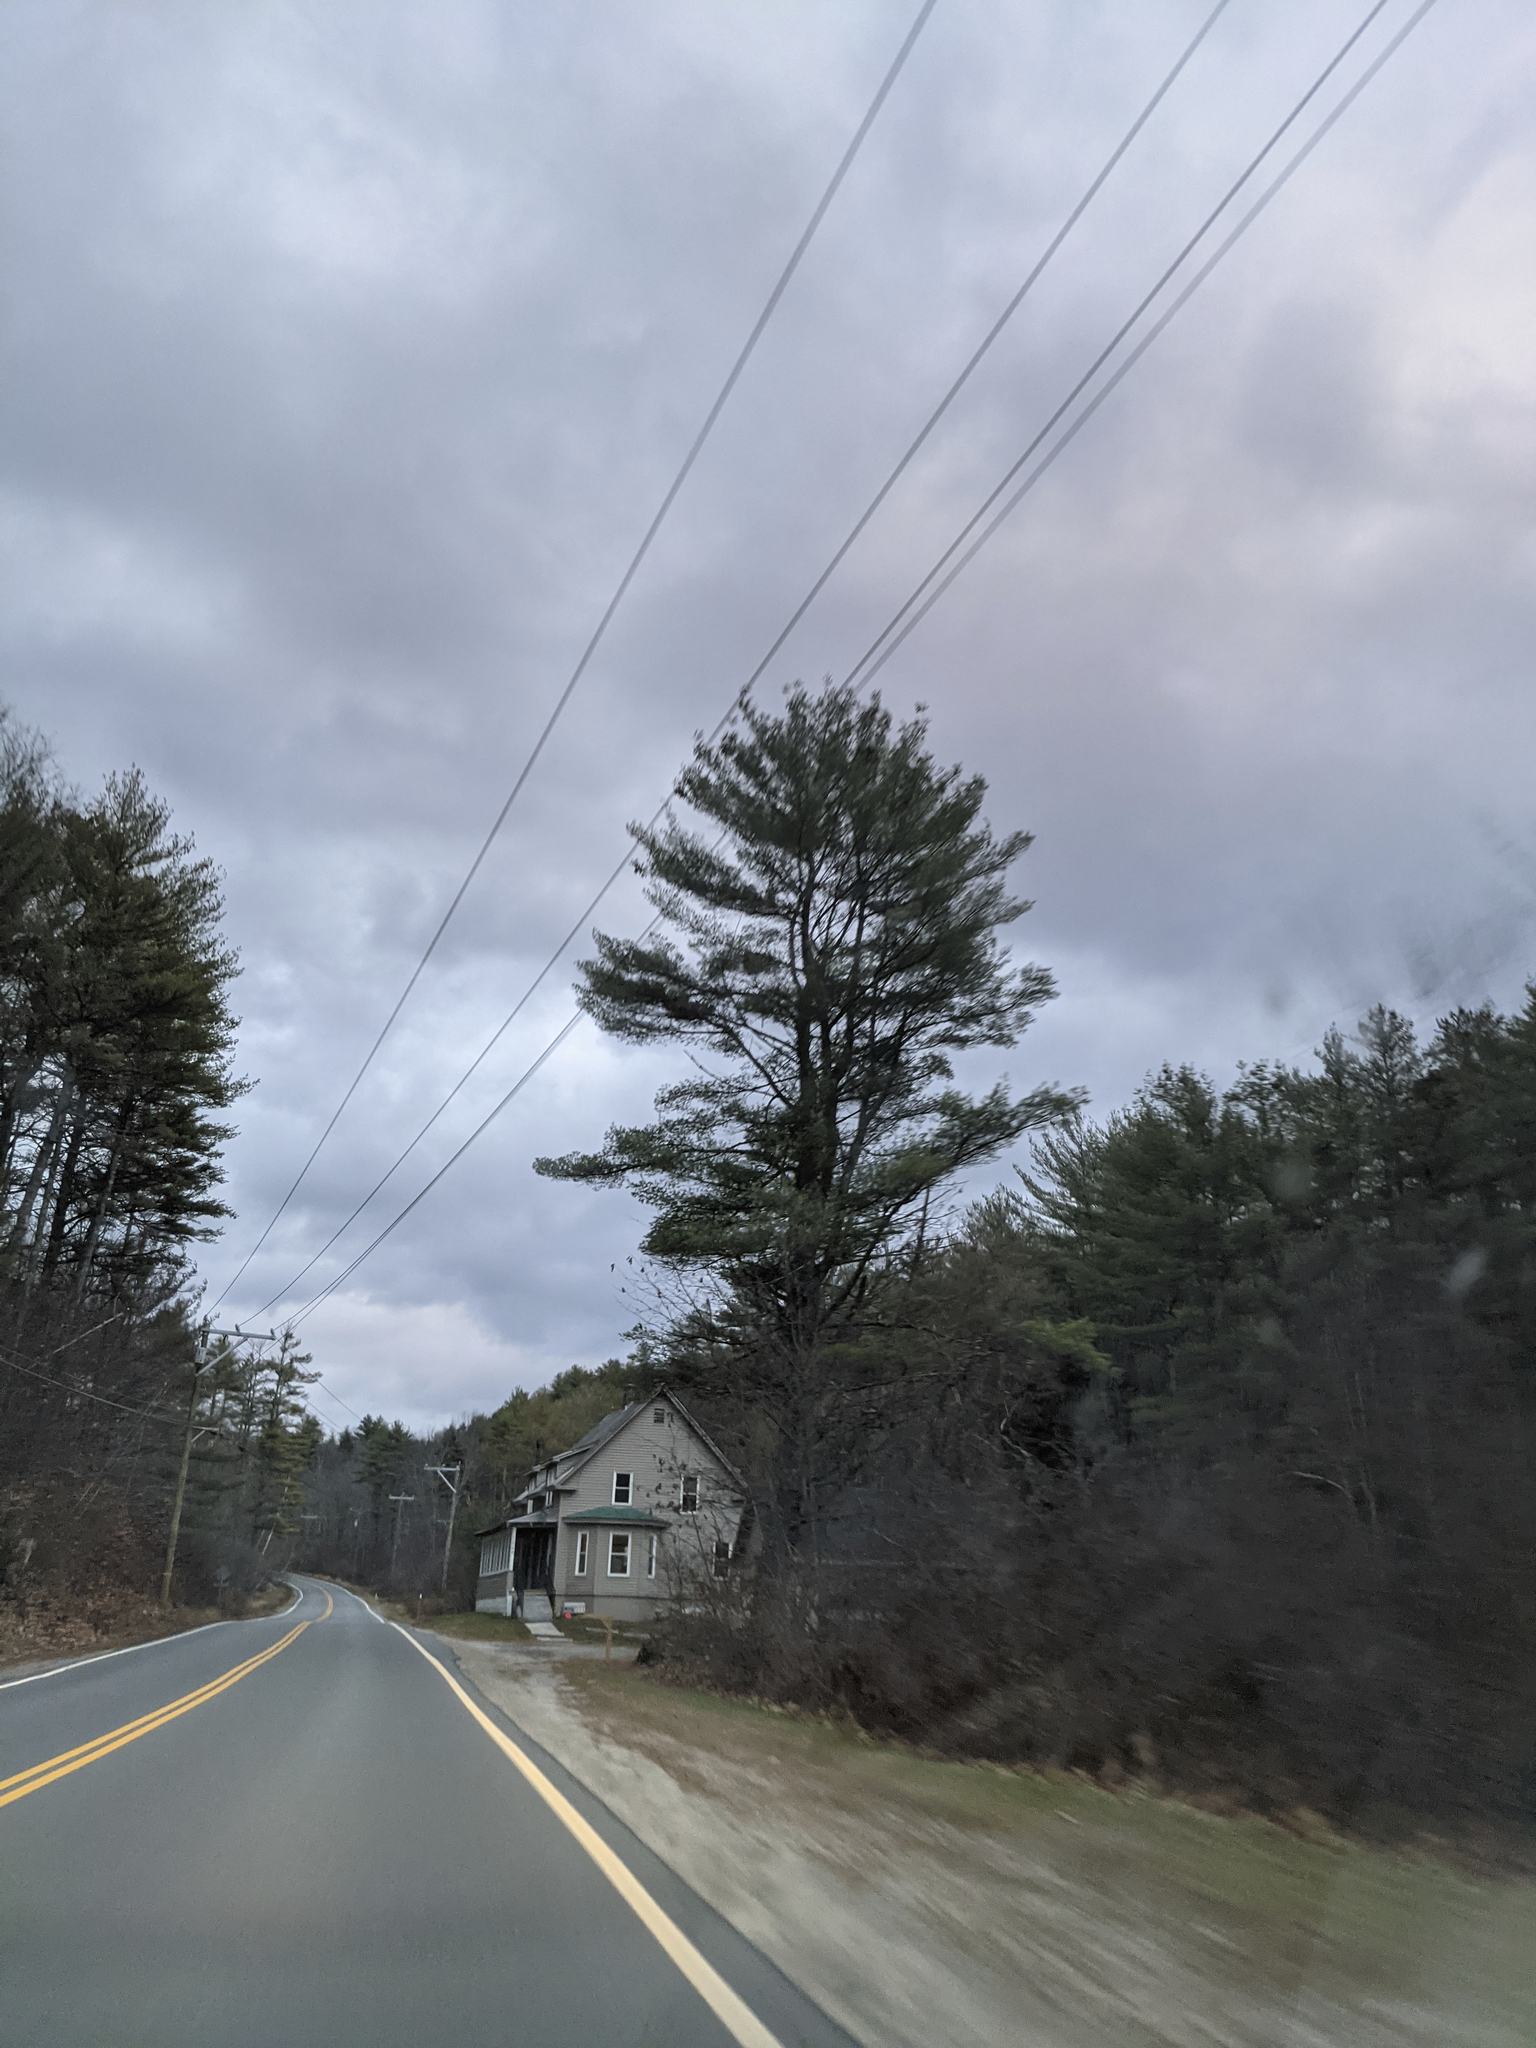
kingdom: Plantae
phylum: Tracheophyta
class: Pinopsida
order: Pinales
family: Pinaceae
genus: Pinus
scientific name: Pinus strobus
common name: Weymouth pine
